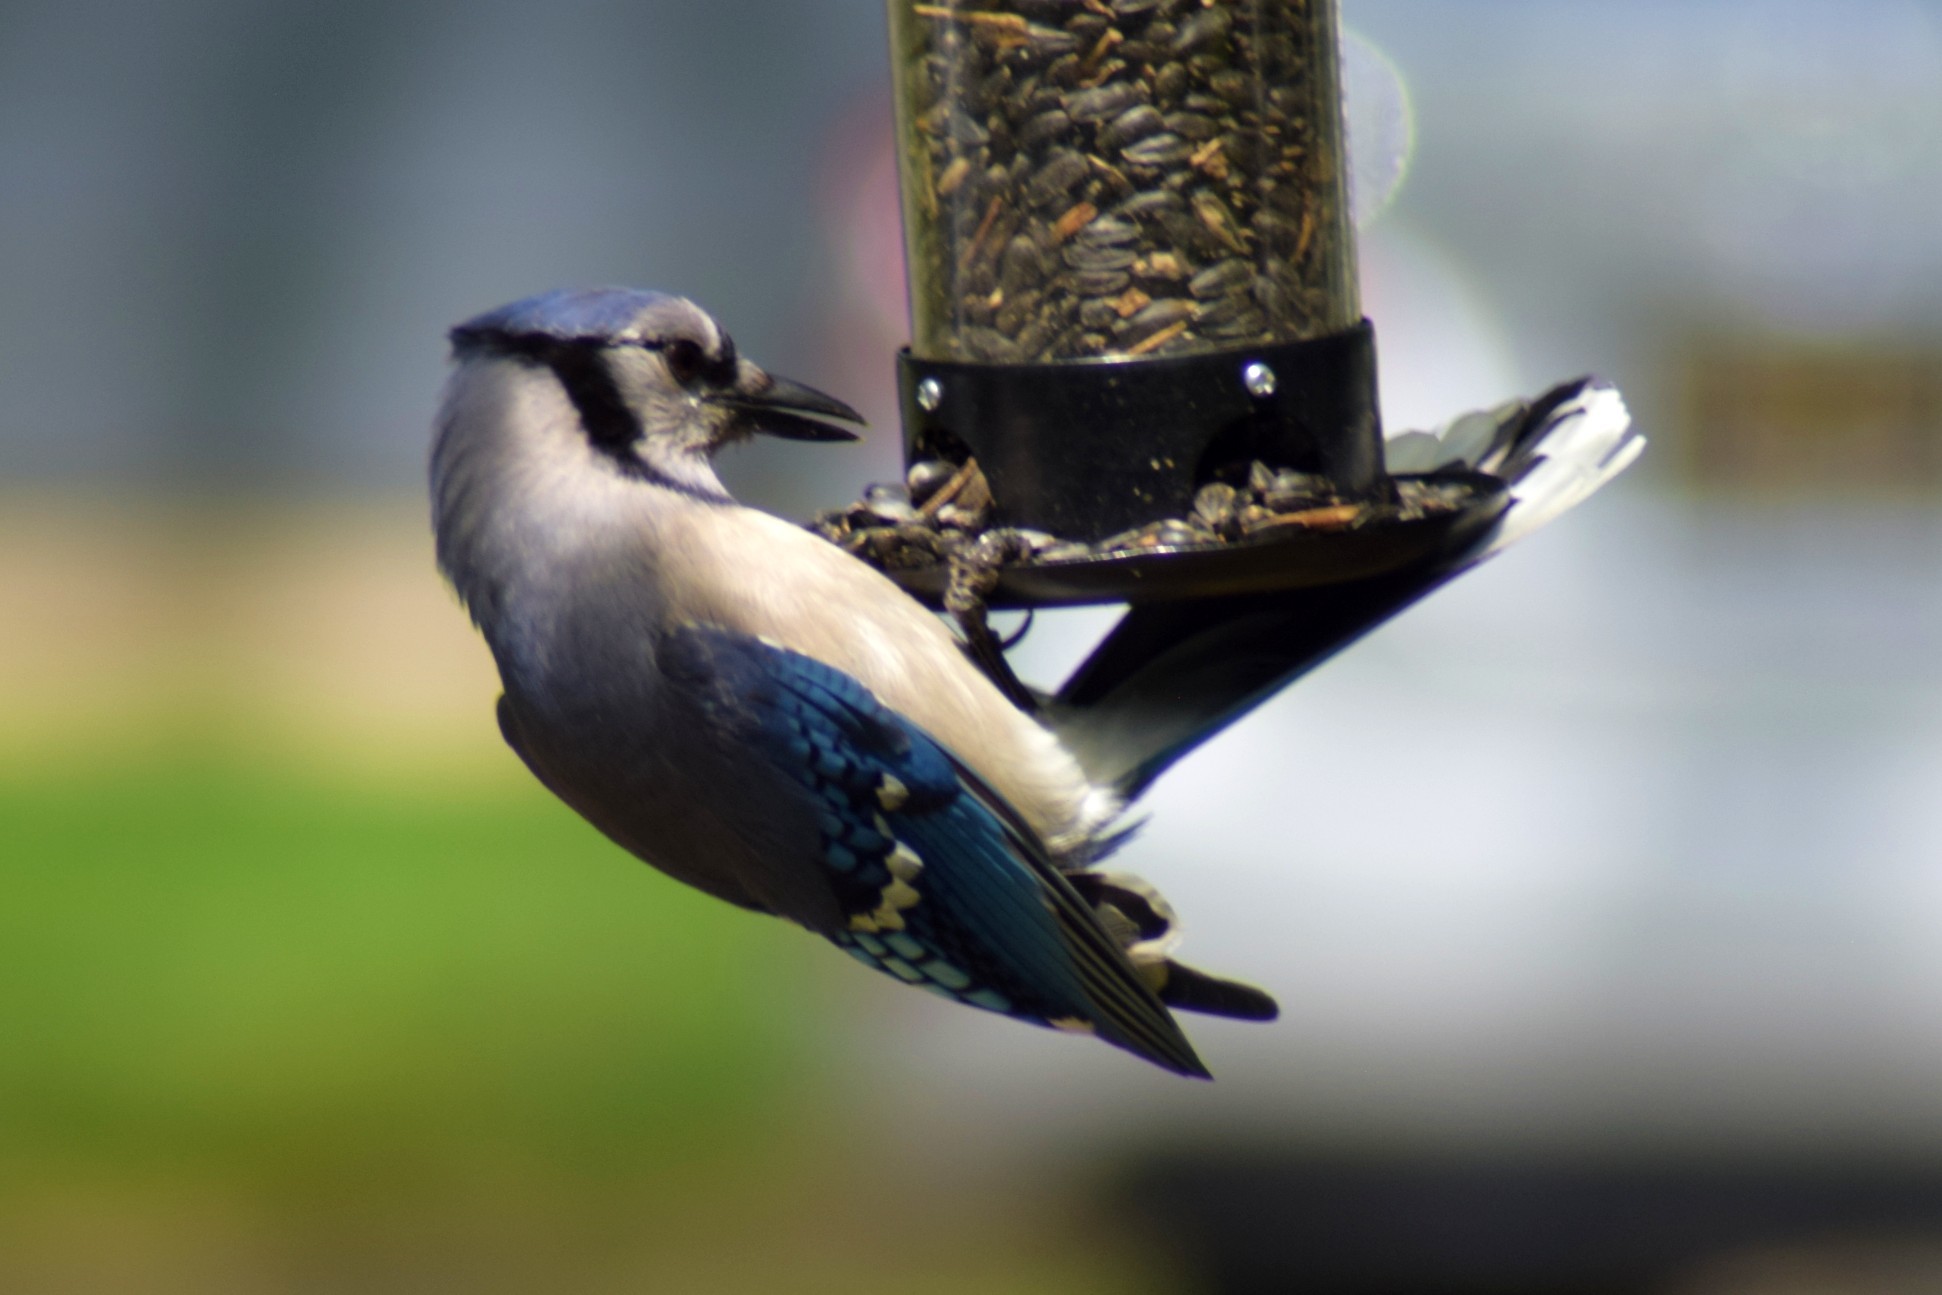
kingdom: Animalia
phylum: Chordata
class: Aves
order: Passeriformes
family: Corvidae
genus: Cyanocitta
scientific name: Cyanocitta cristata
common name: Blue jay
